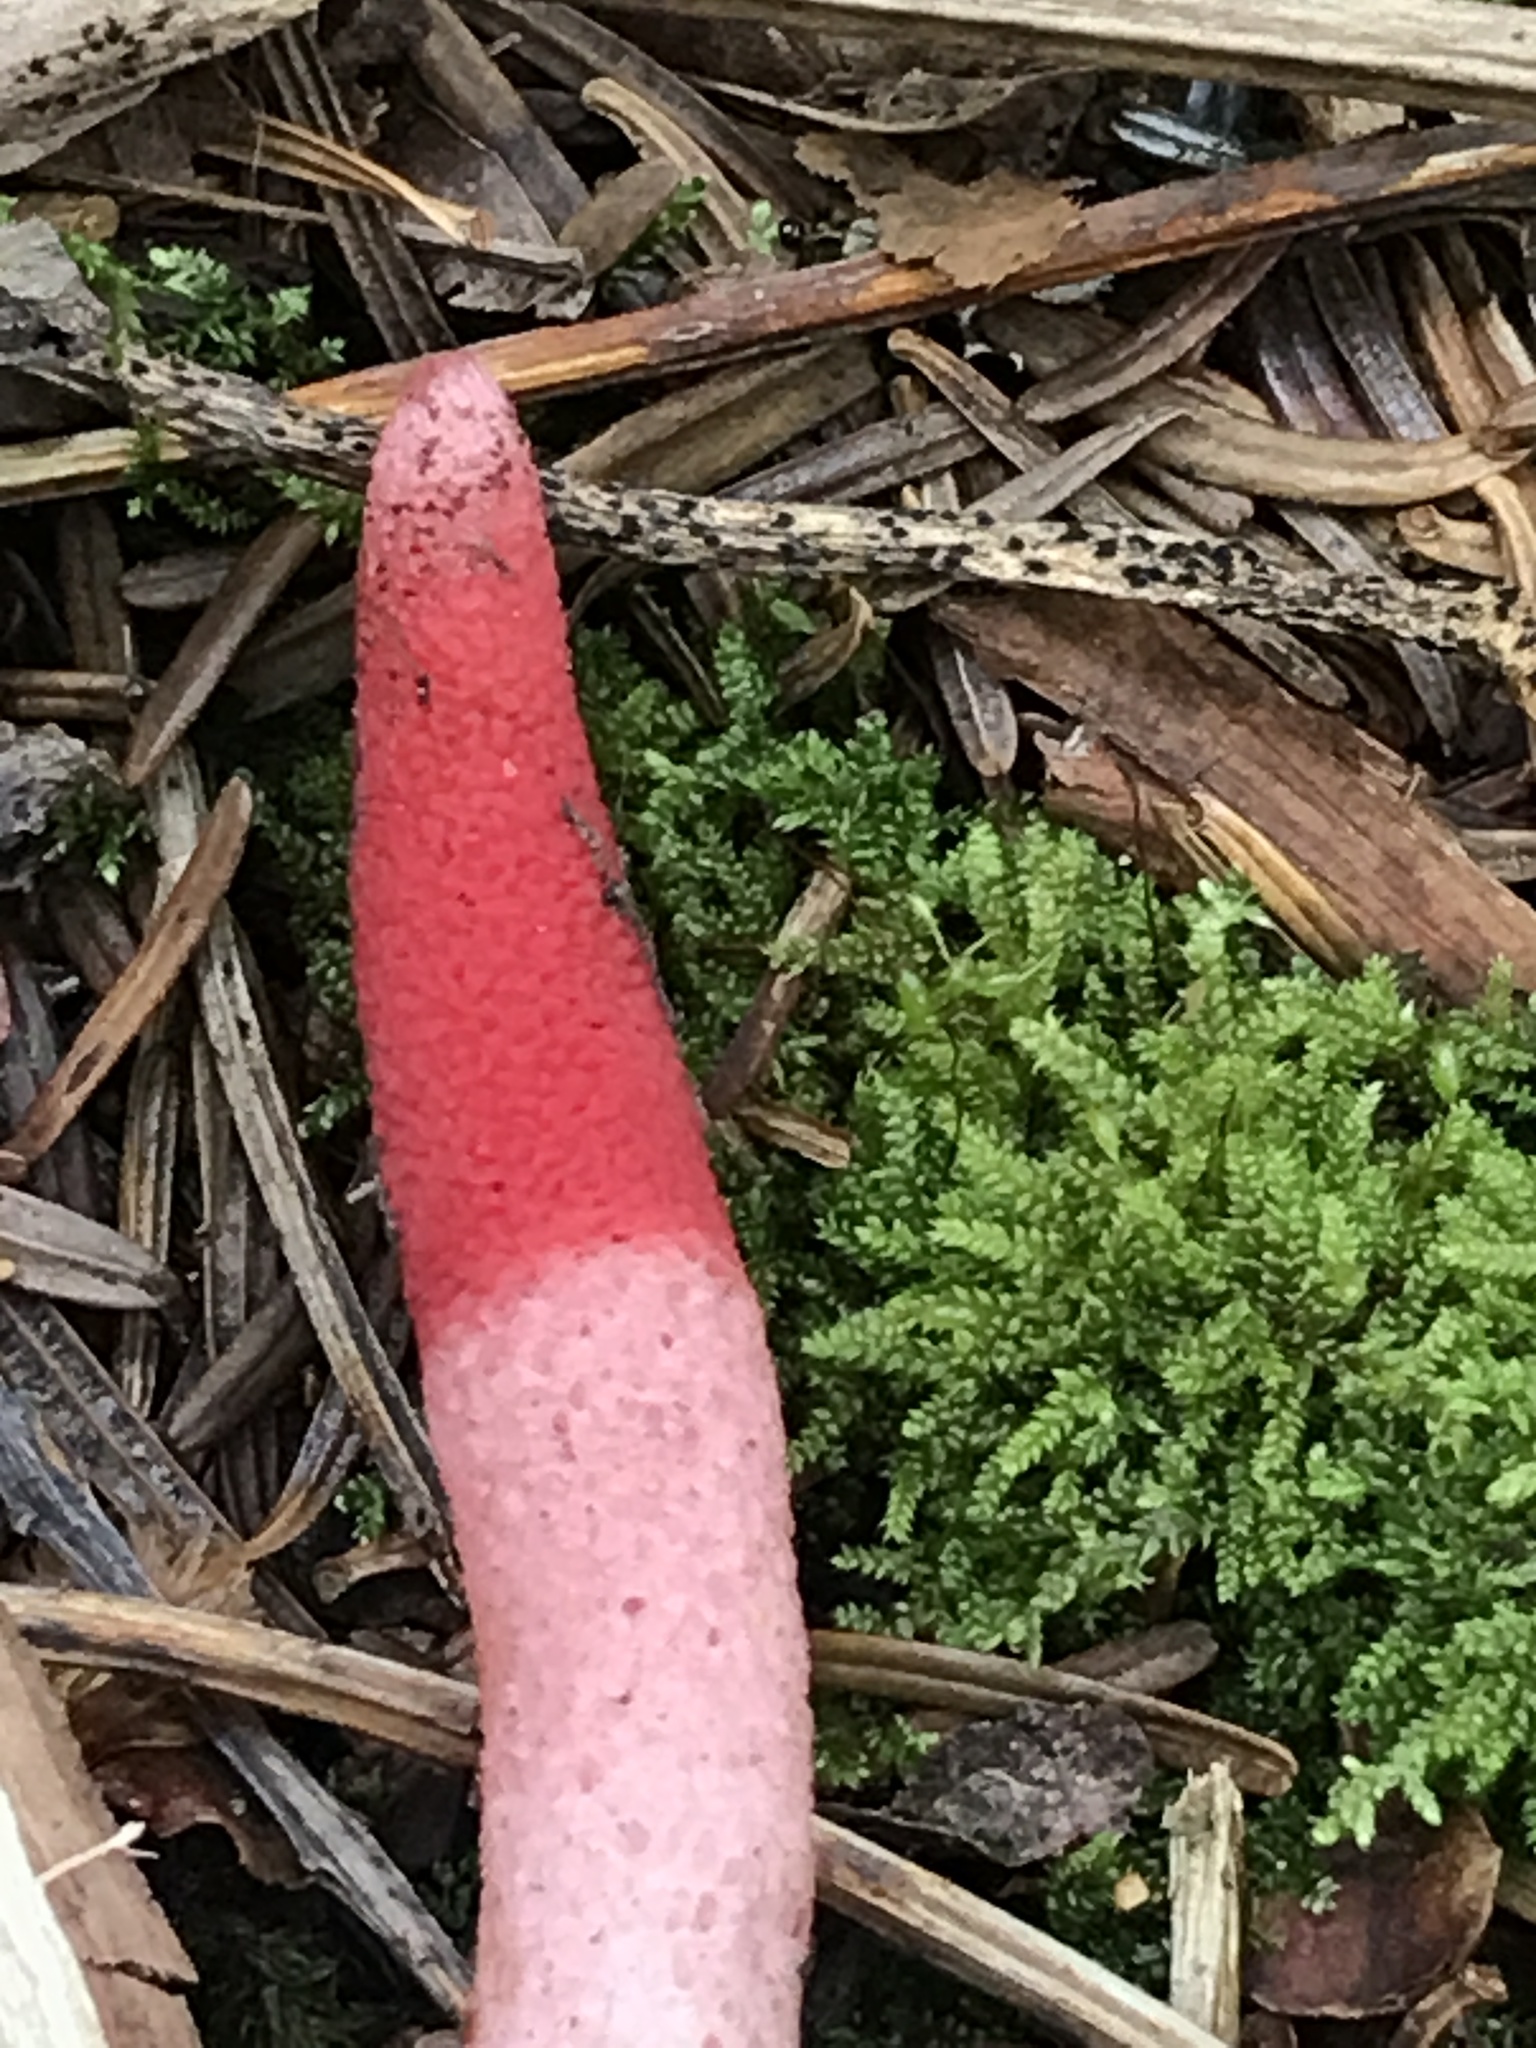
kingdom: Fungi
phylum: Basidiomycota
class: Agaricomycetes
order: Phallales
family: Phallaceae
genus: Mutinus
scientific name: Mutinus ravenelii
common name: Red stinkhorn
